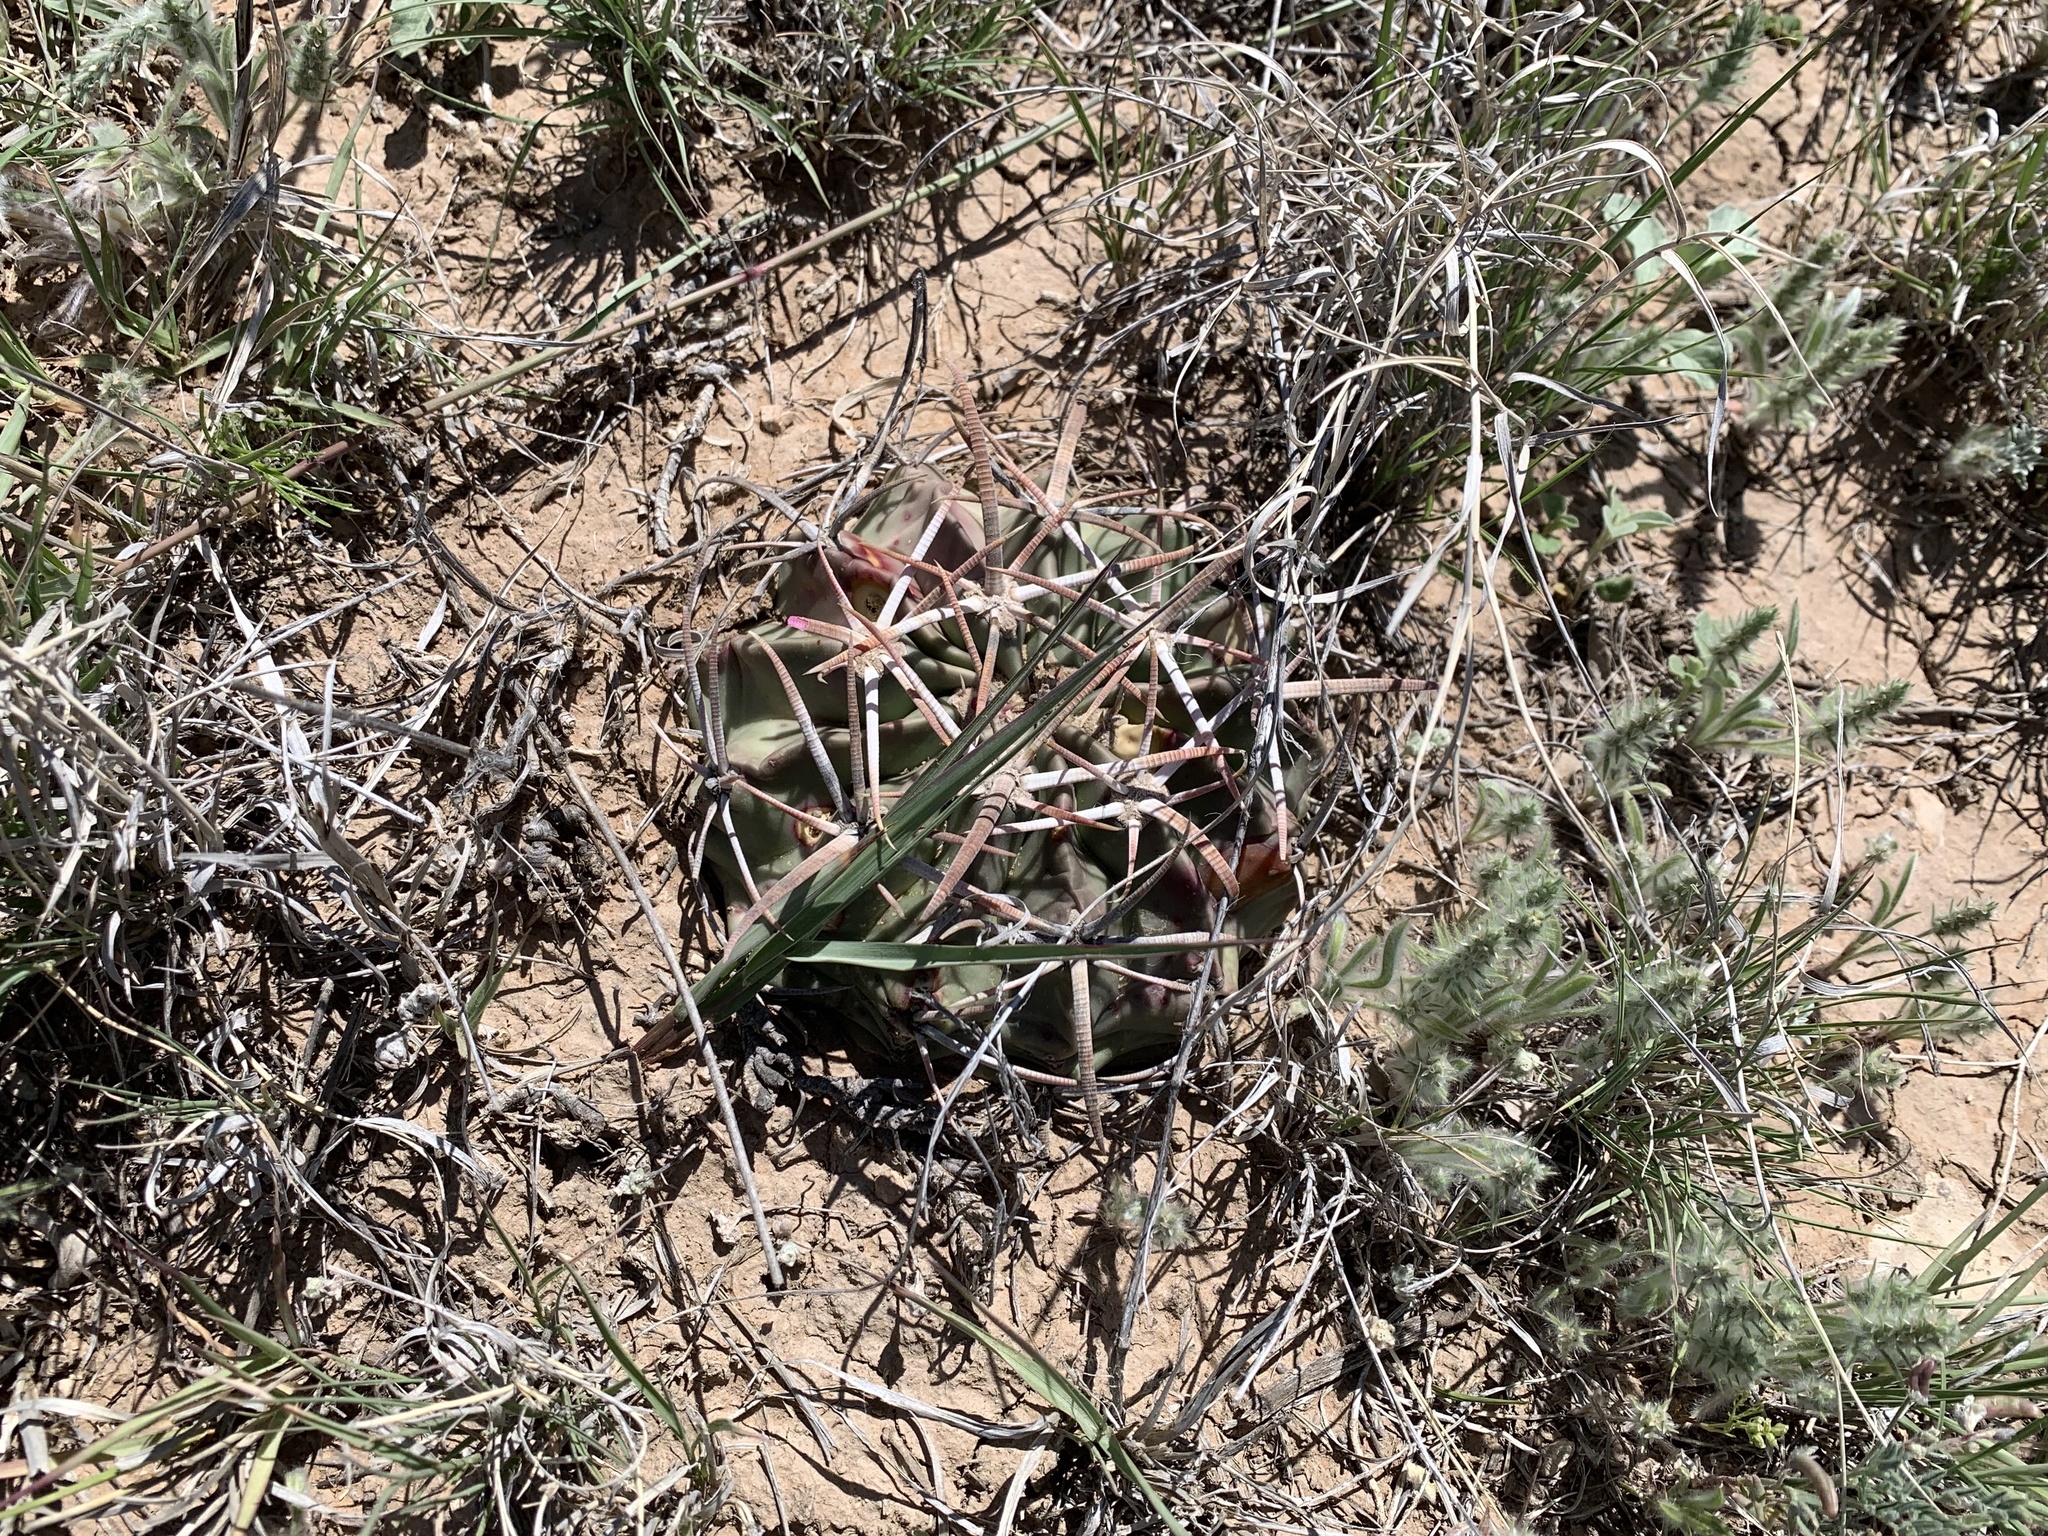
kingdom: Plantae
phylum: Tracheophyta
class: Magnoliopsida
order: Caryophyllales
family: Cactaceae
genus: Echinocactus
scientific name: Echinocactus texensis
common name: Devil's pincushion
